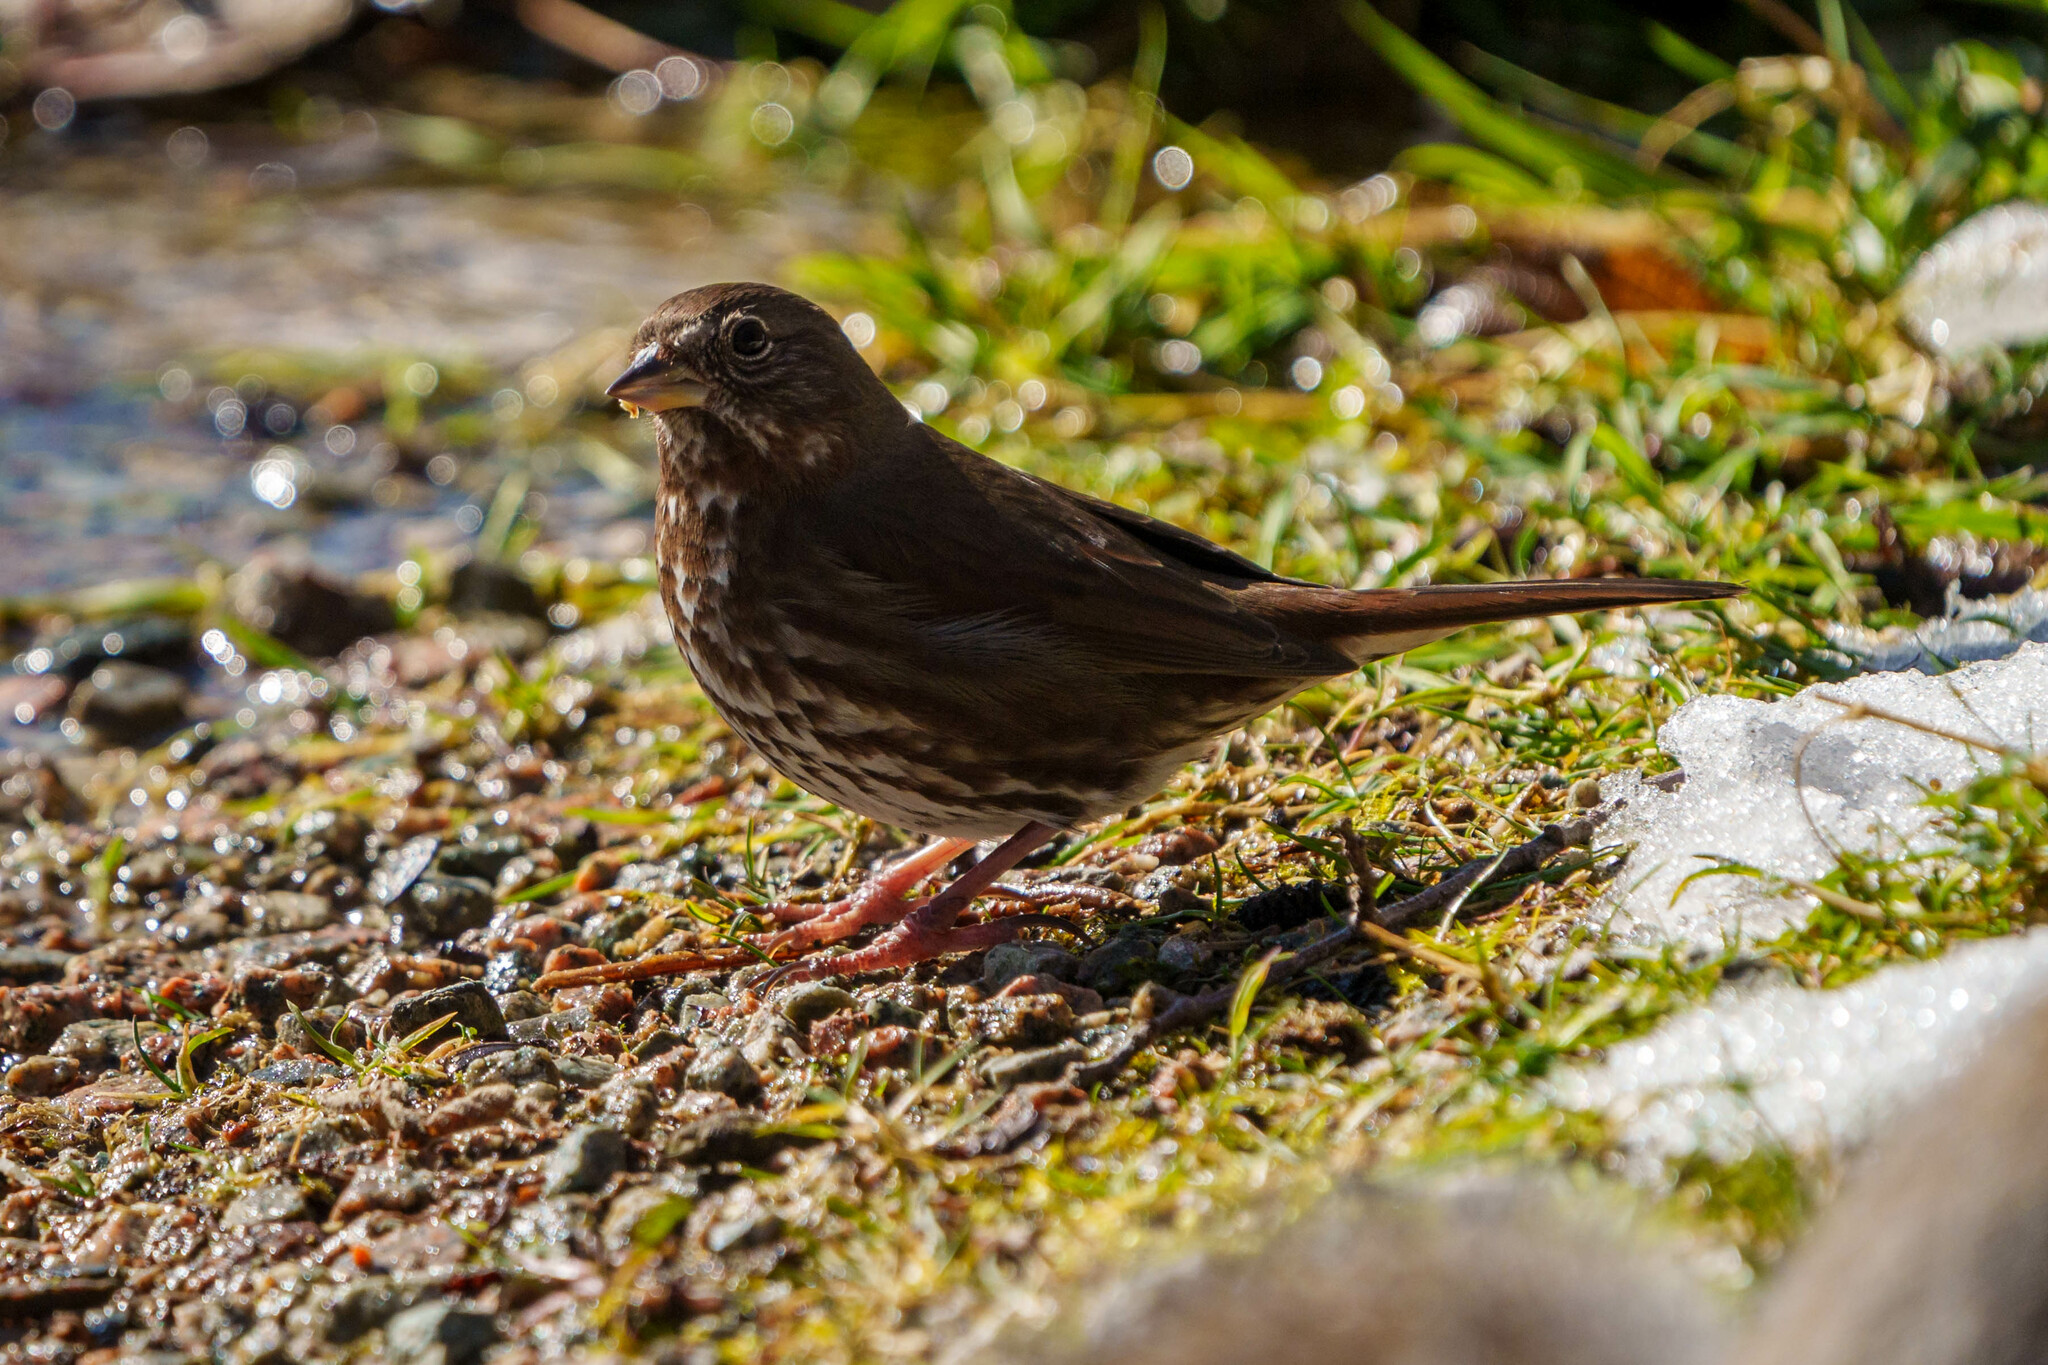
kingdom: Animalia
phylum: Chordata
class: Aves
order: Passeriformes
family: Passerellidae
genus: Passerella
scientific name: Passerella iliaca
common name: Fox sparrow
